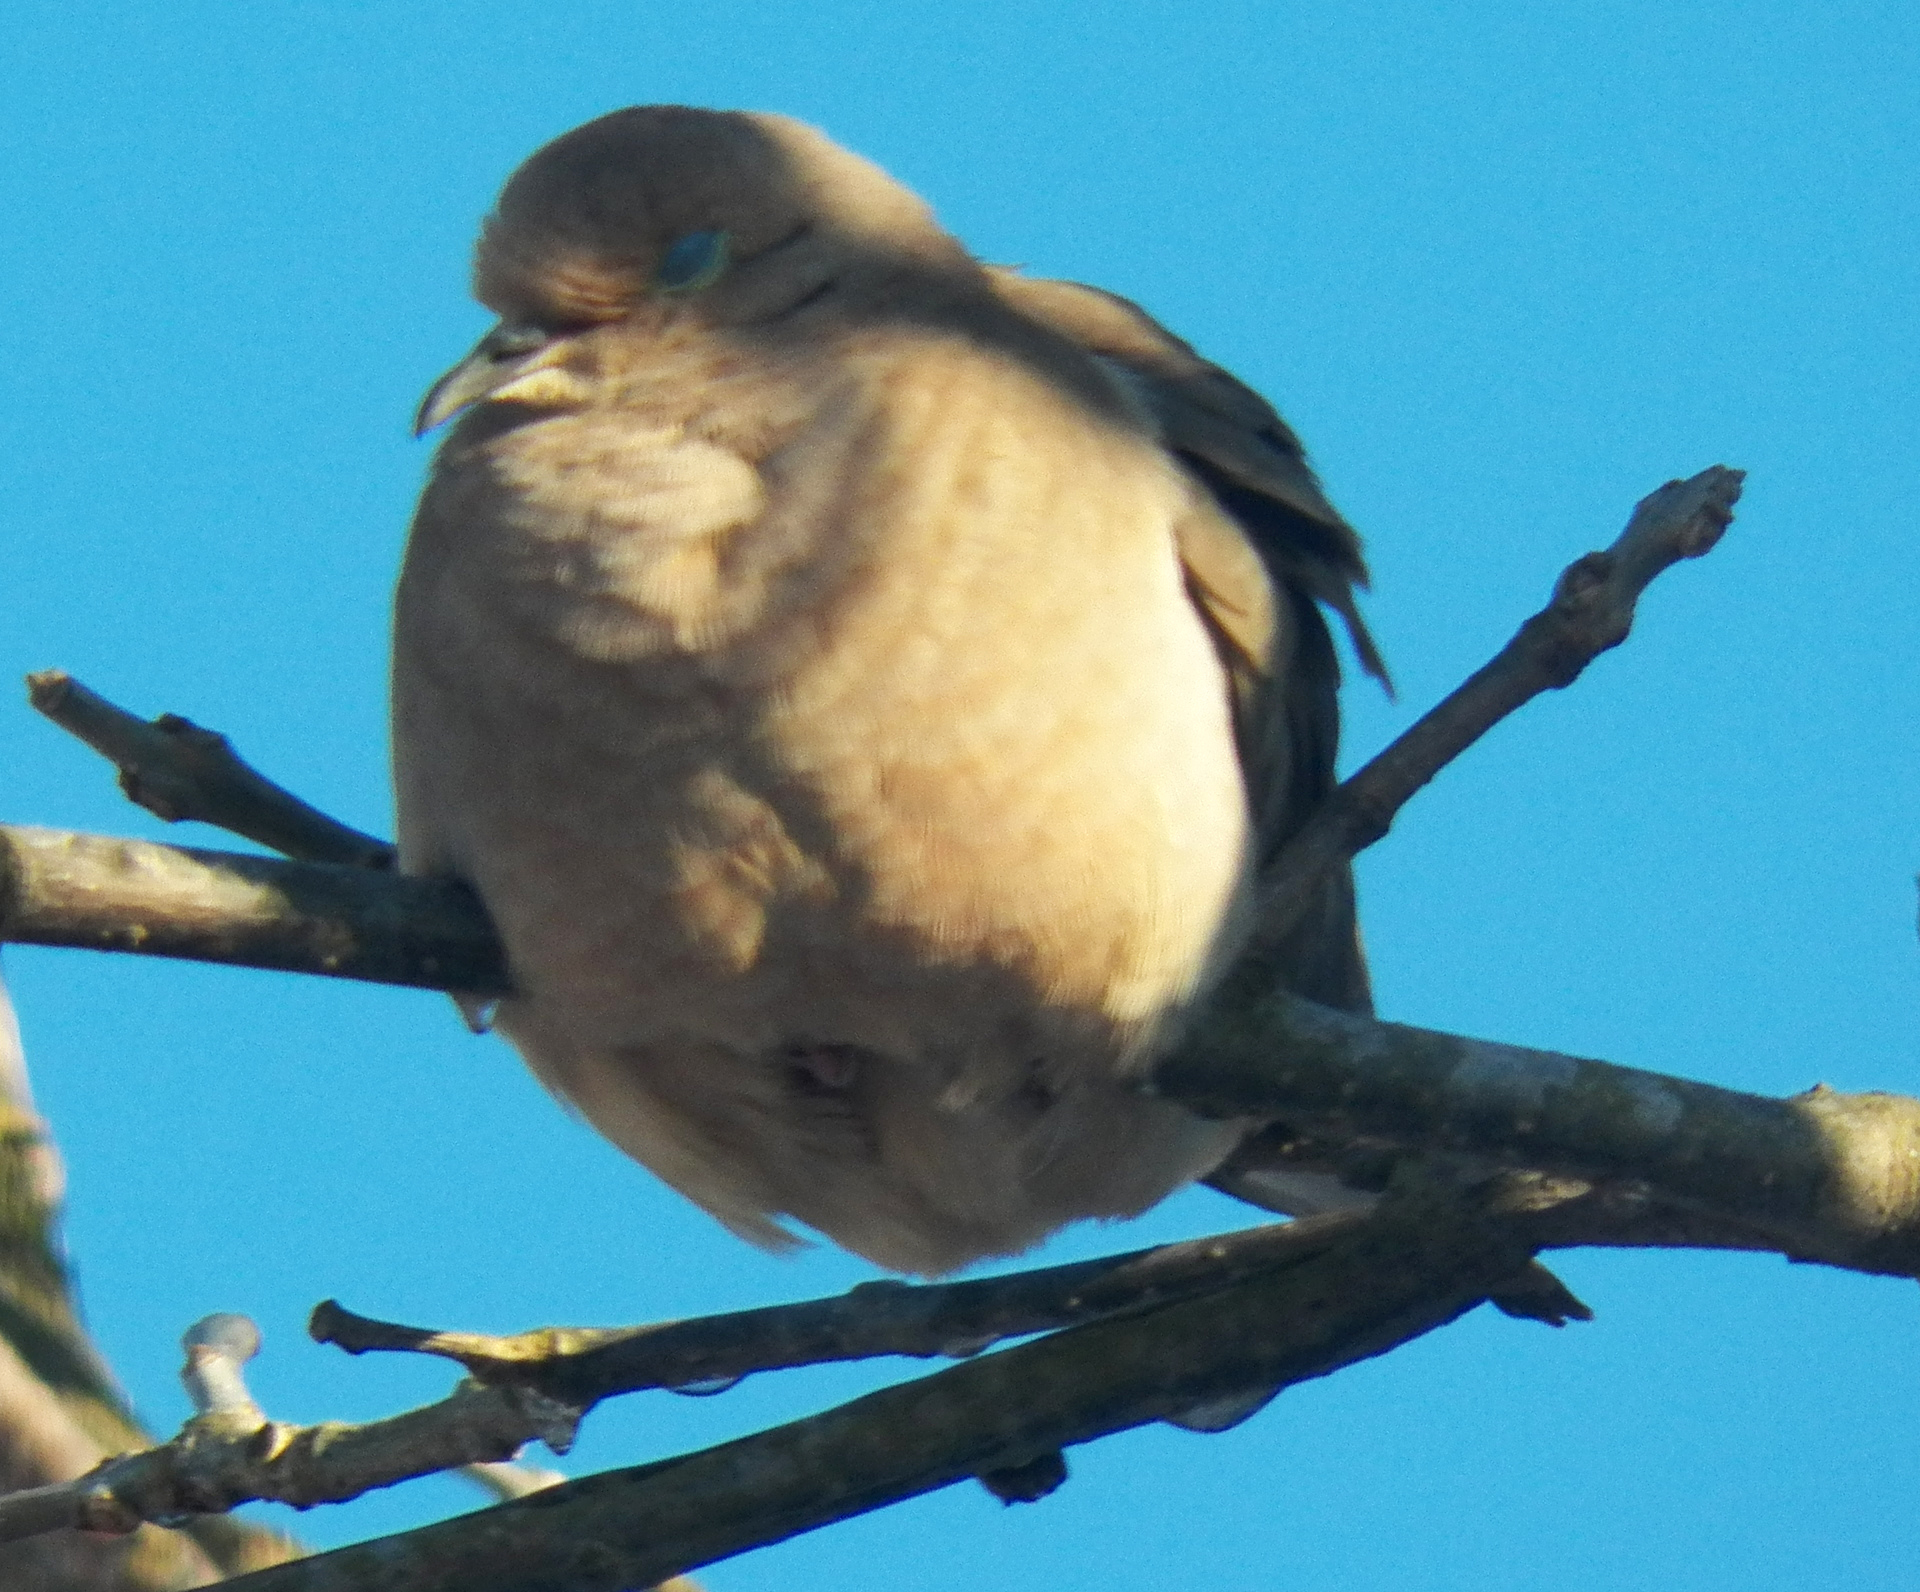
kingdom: Animalia
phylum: Chordata
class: Aves
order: Columbiformes
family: Columbidae
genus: Zenaida
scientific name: Zenaida macroura
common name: Mourning dove
